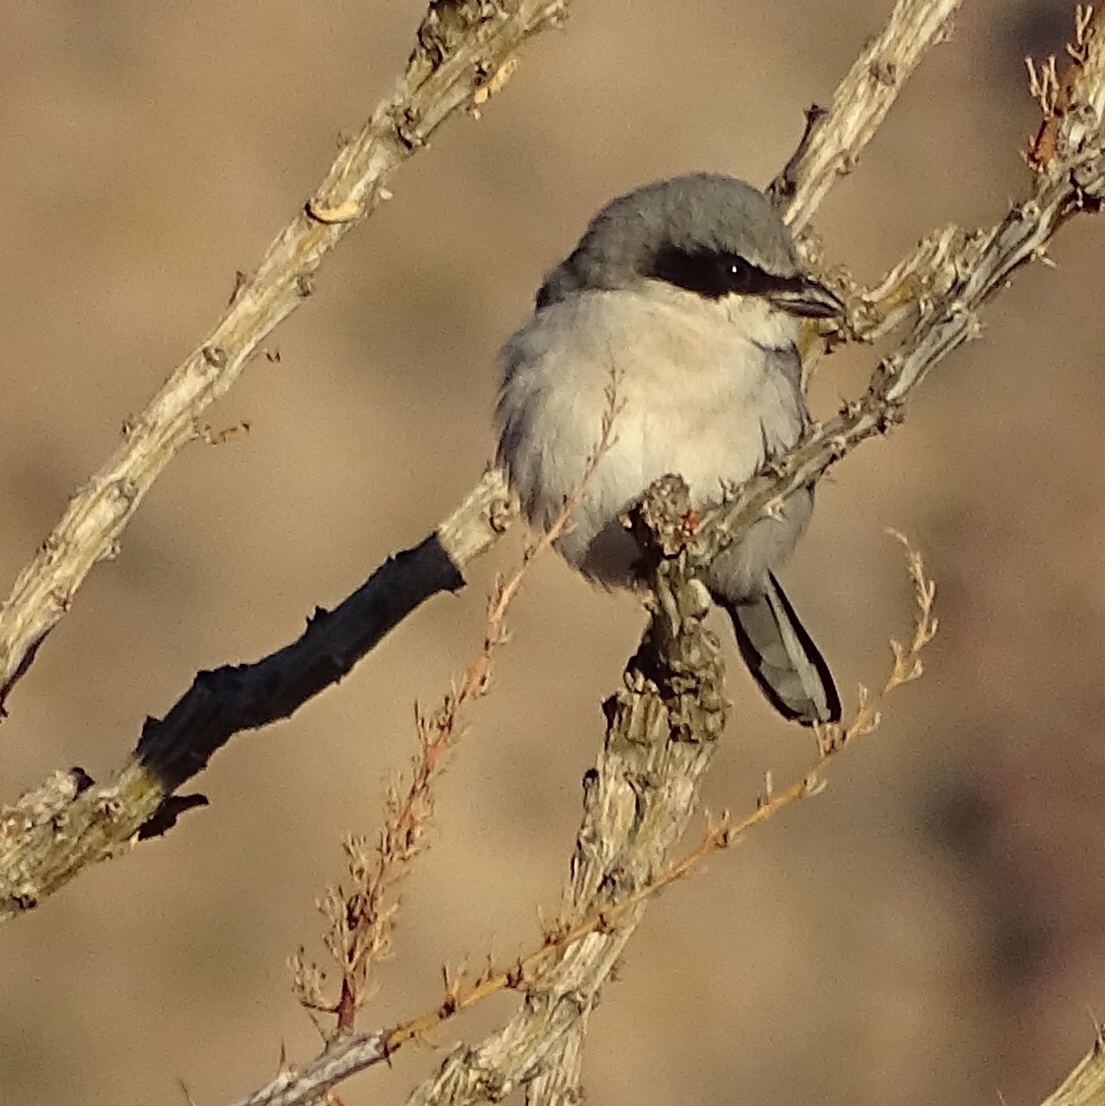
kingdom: Animalia
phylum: Chordata
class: Aves
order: Passeriformes
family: Laniidae
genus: Lanius
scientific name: Lanius ludovicianus
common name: Loggerhead shrike
